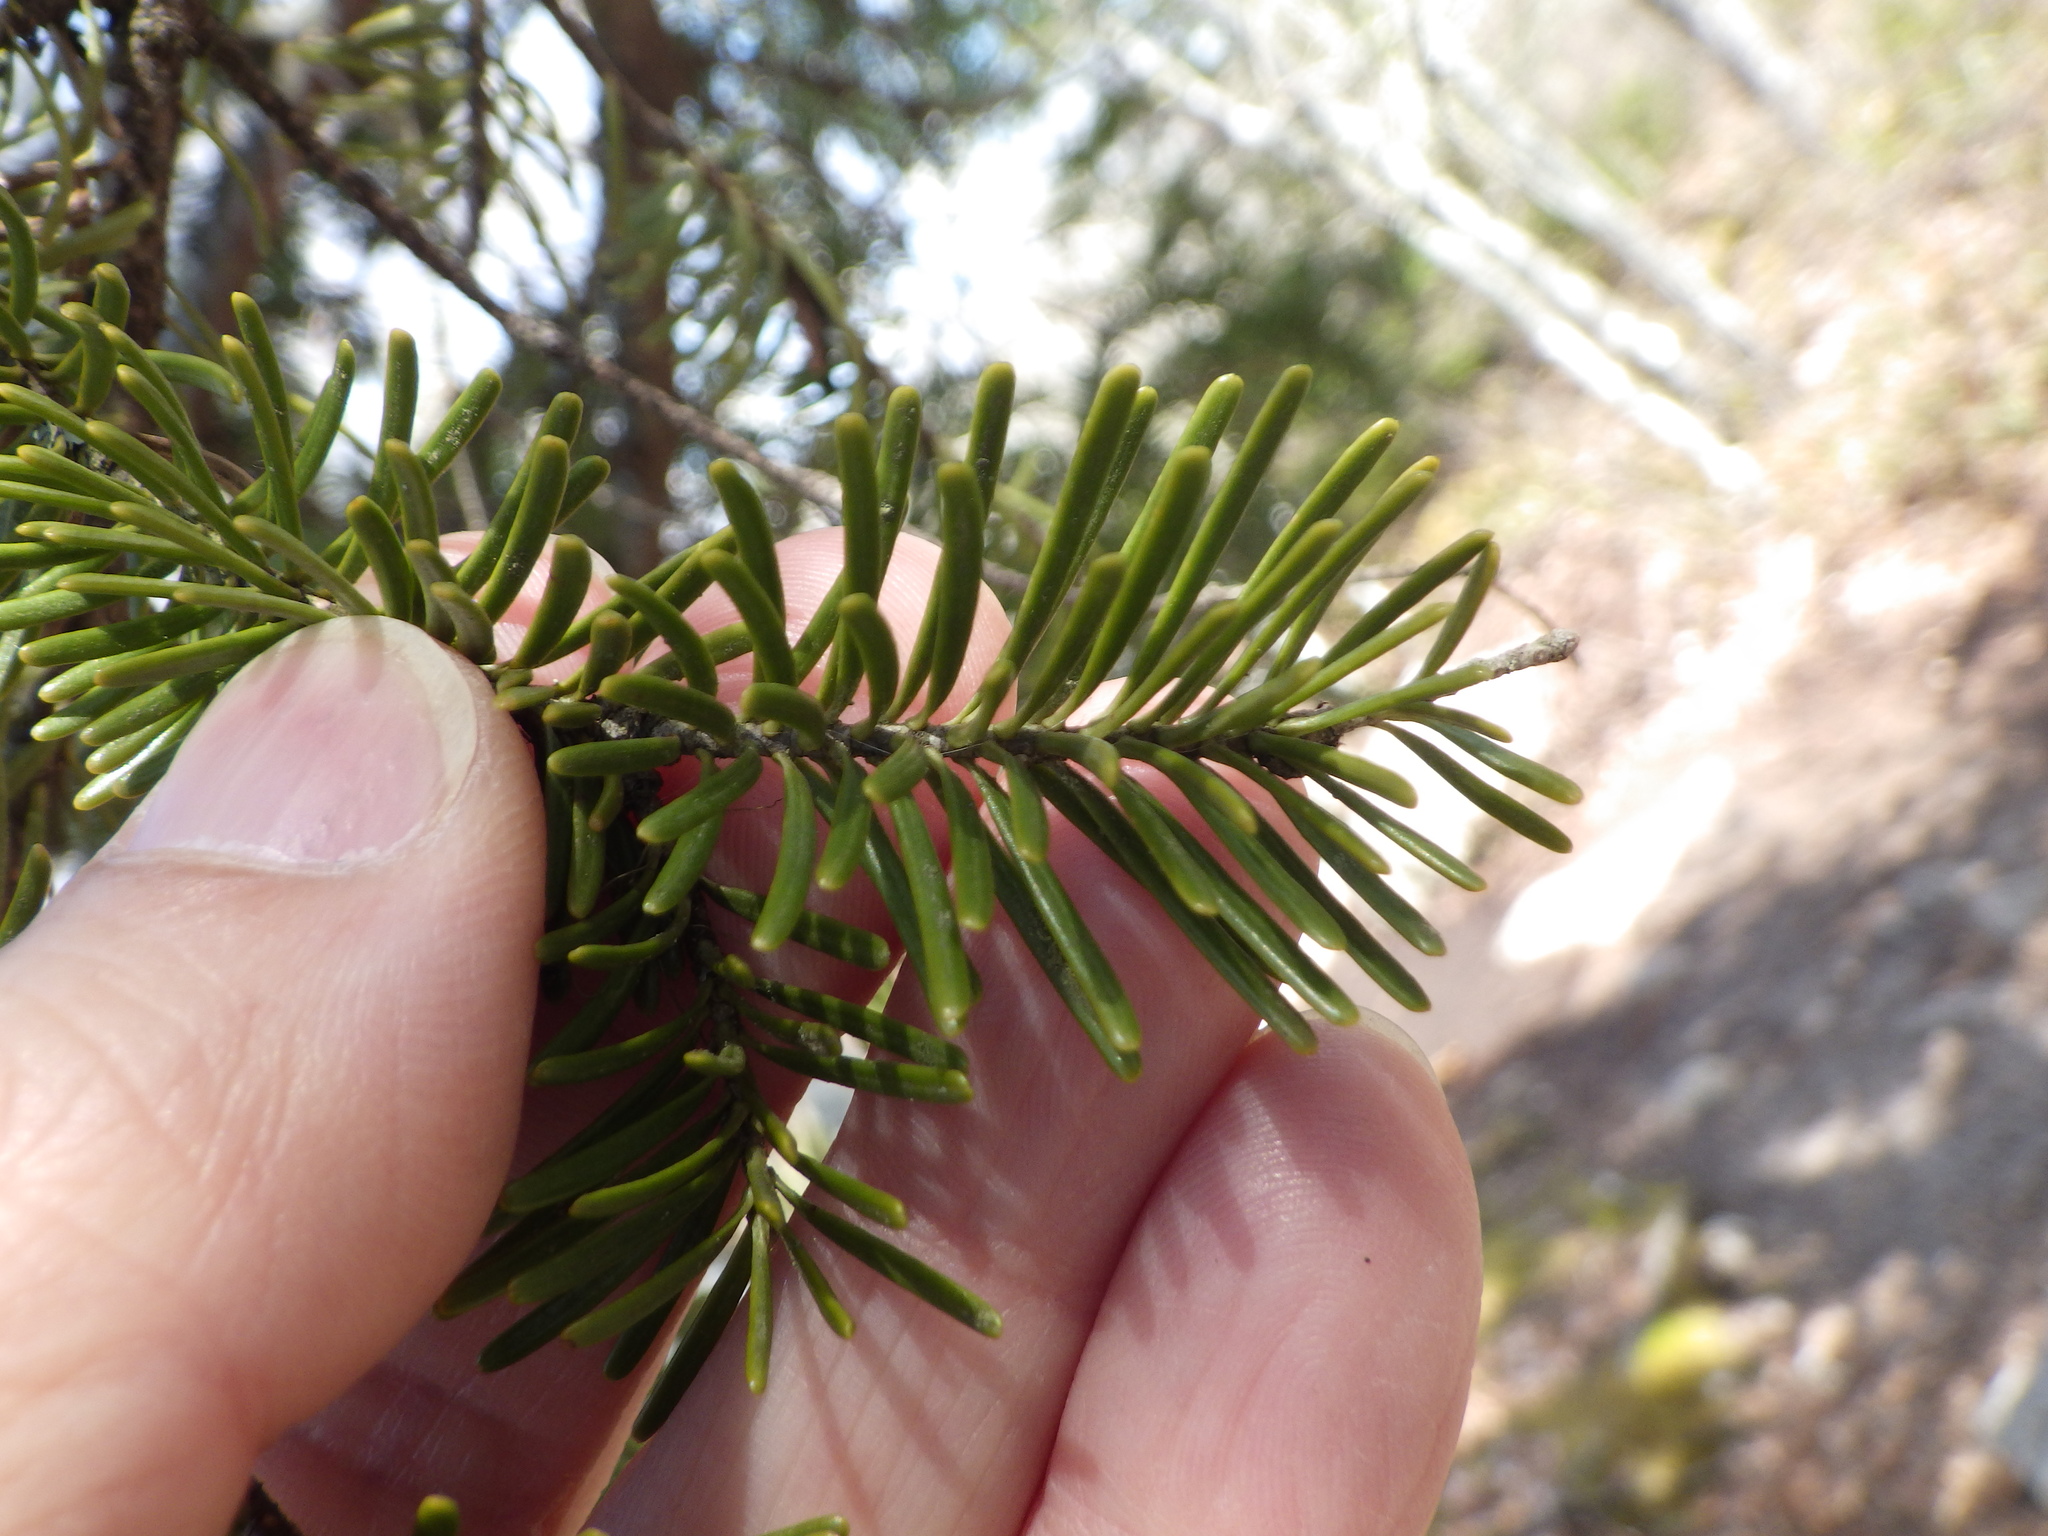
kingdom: Plantae
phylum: Tracheophyta
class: Pinopsida
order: Pinales
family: Pinaceae
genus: Abies
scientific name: Abies balsamea
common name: Balsam fir
